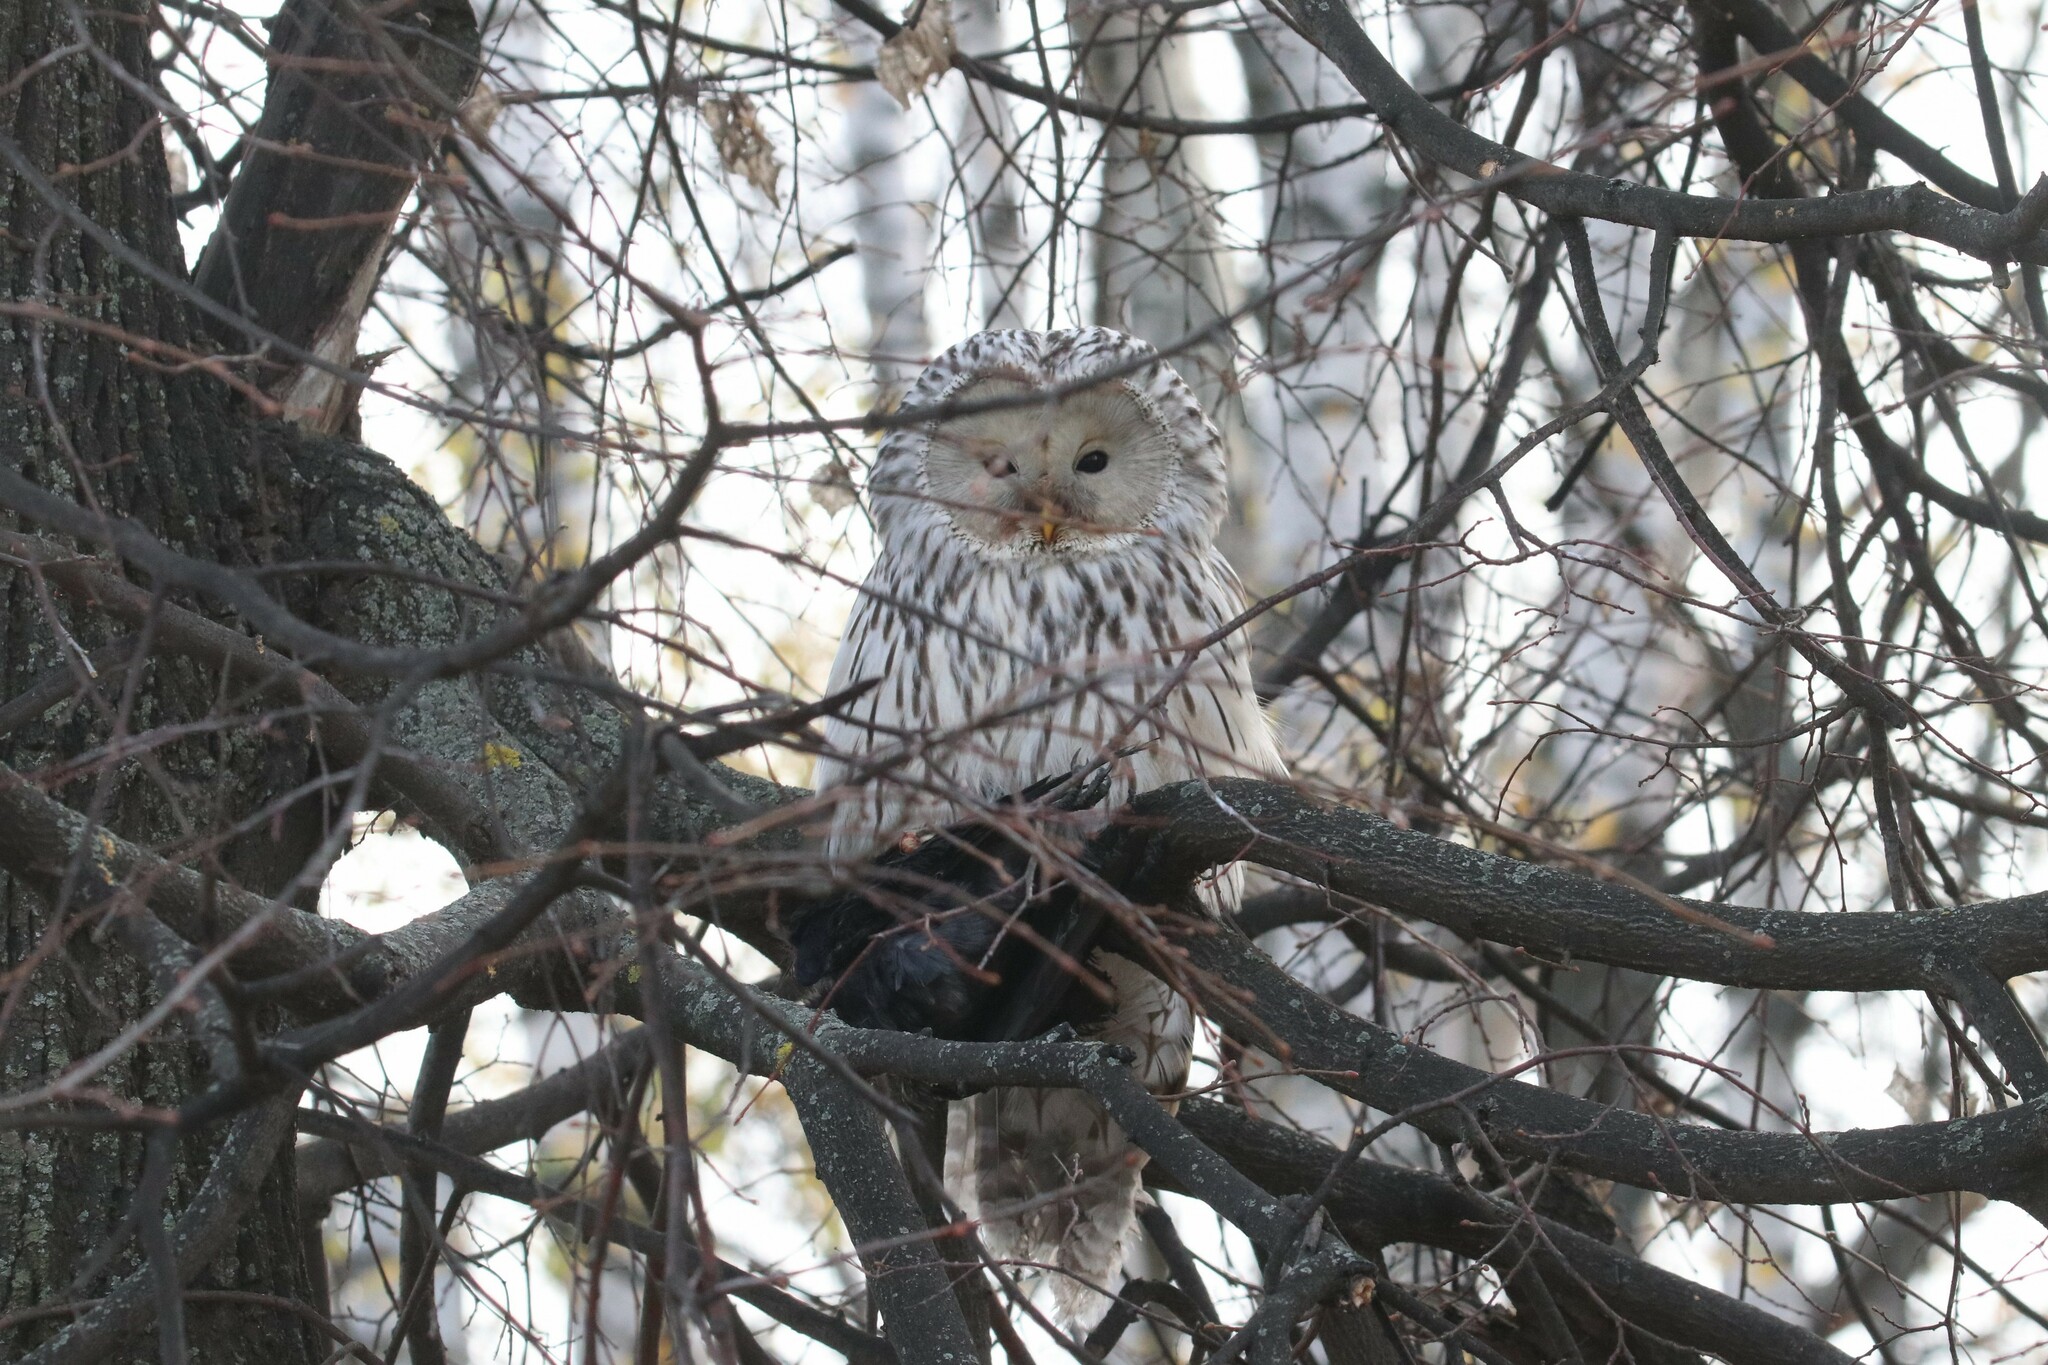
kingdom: Animalia
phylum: Chordata
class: Aves
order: Strigiformes
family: Strigidae
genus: Strix
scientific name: Strix uralensis
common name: Ural owl
